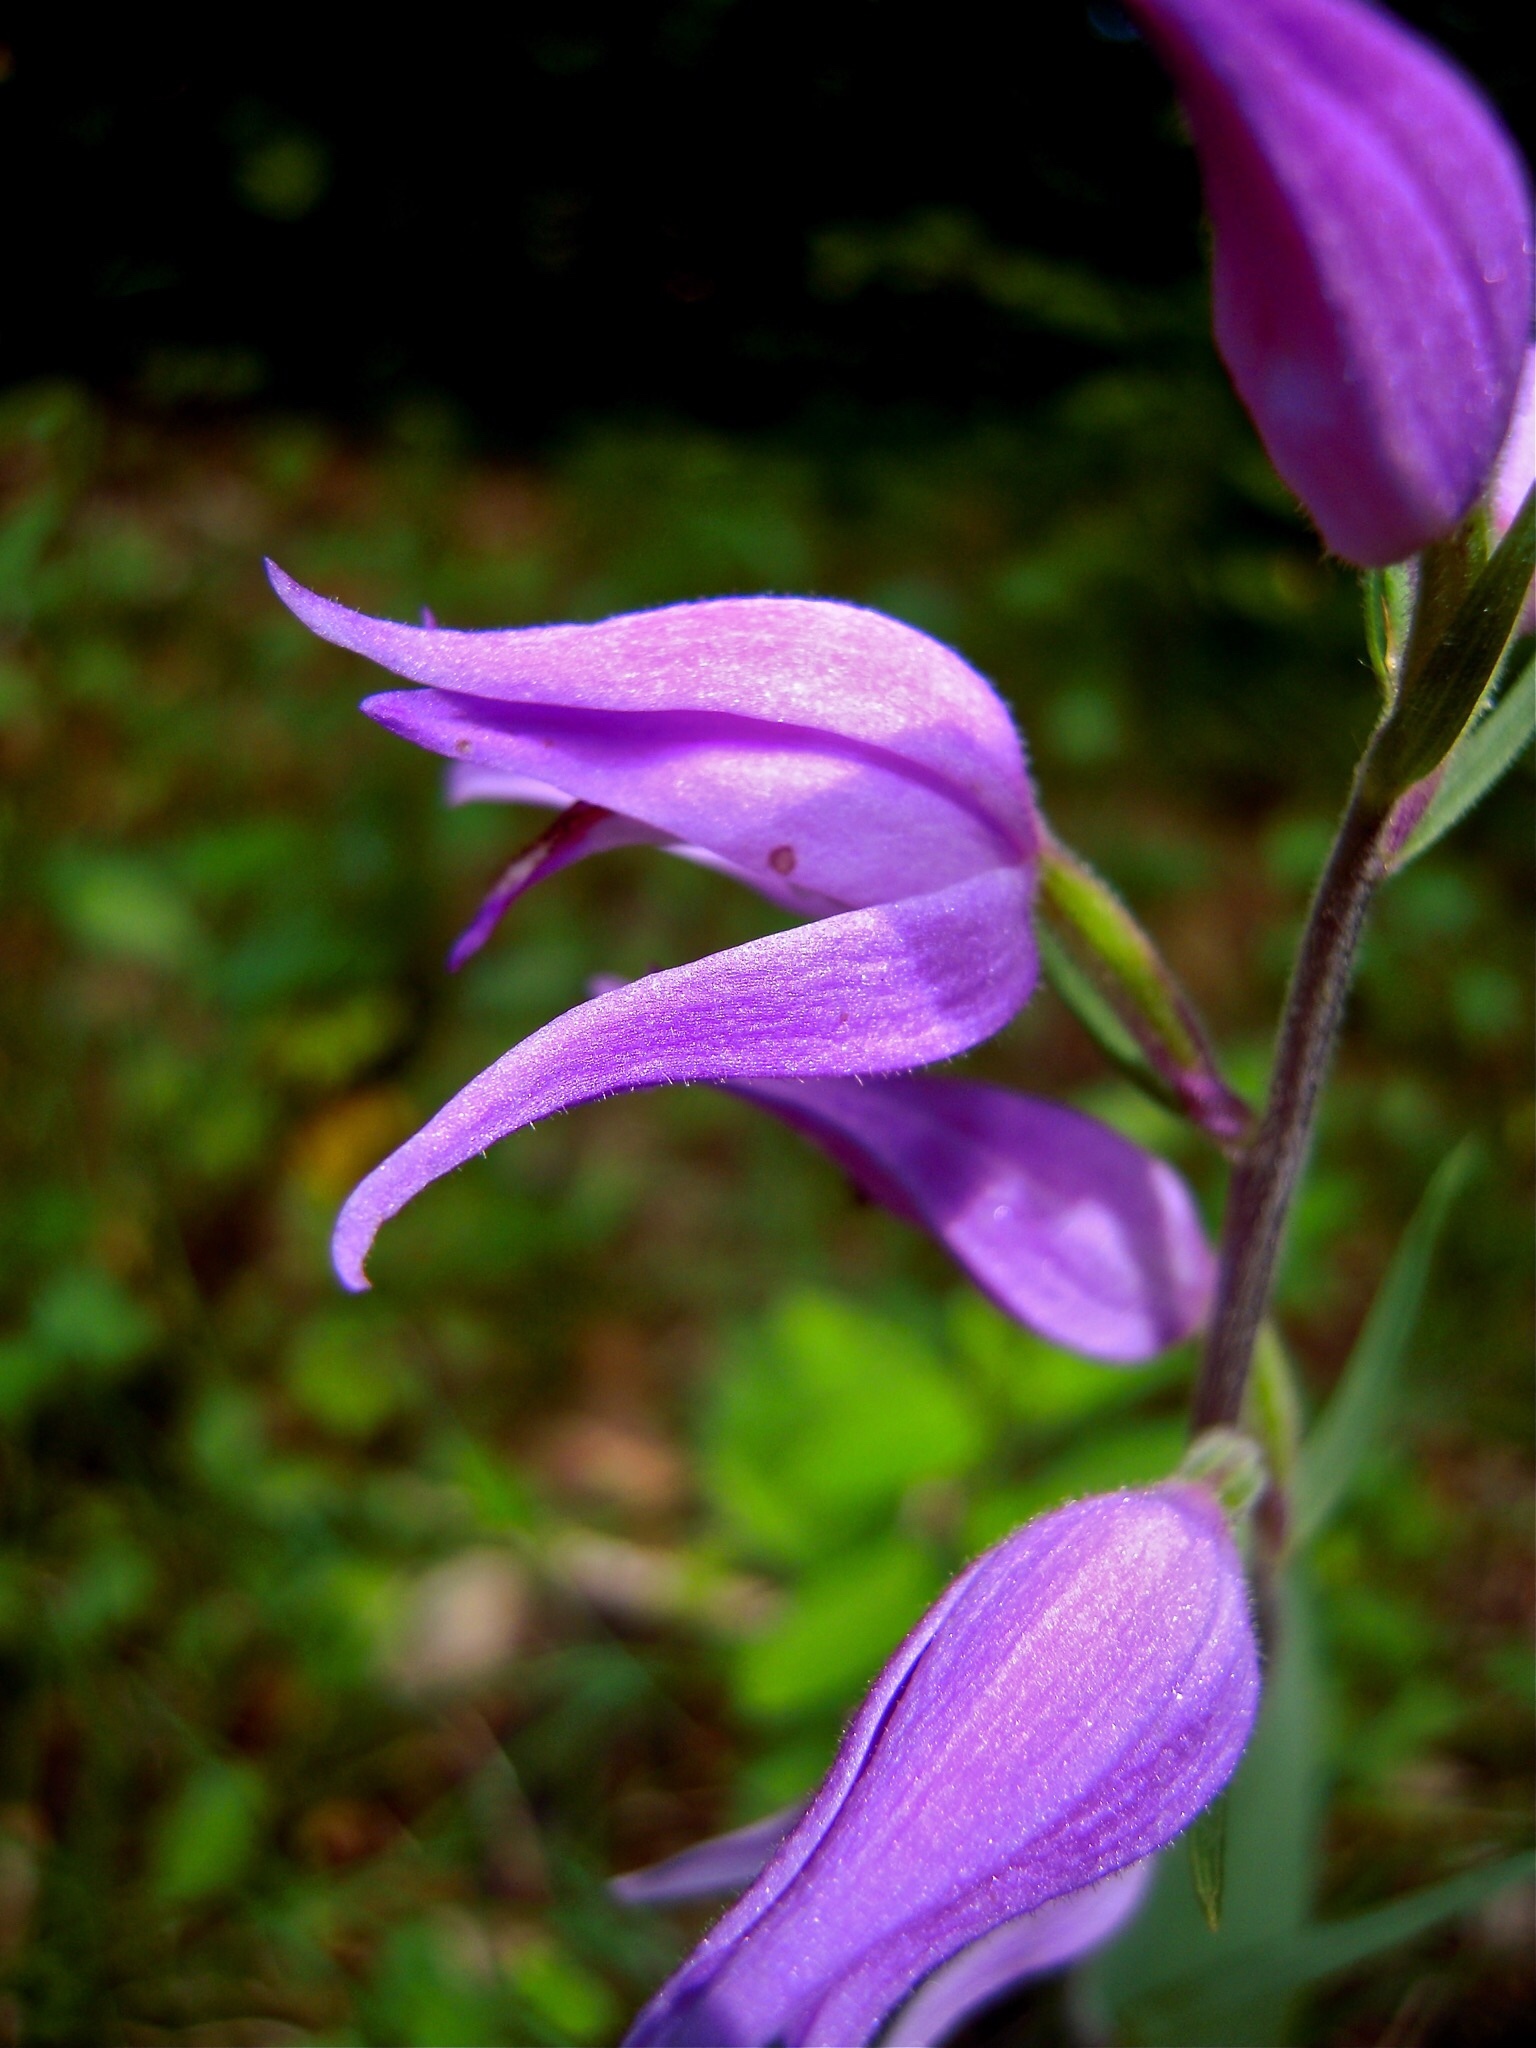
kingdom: Plantae
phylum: Tracheophyta
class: Liliopsida
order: Asparagales
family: Orchidaceae
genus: Cephalanthera
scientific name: Cephalanthera rubra
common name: Red helleborine
